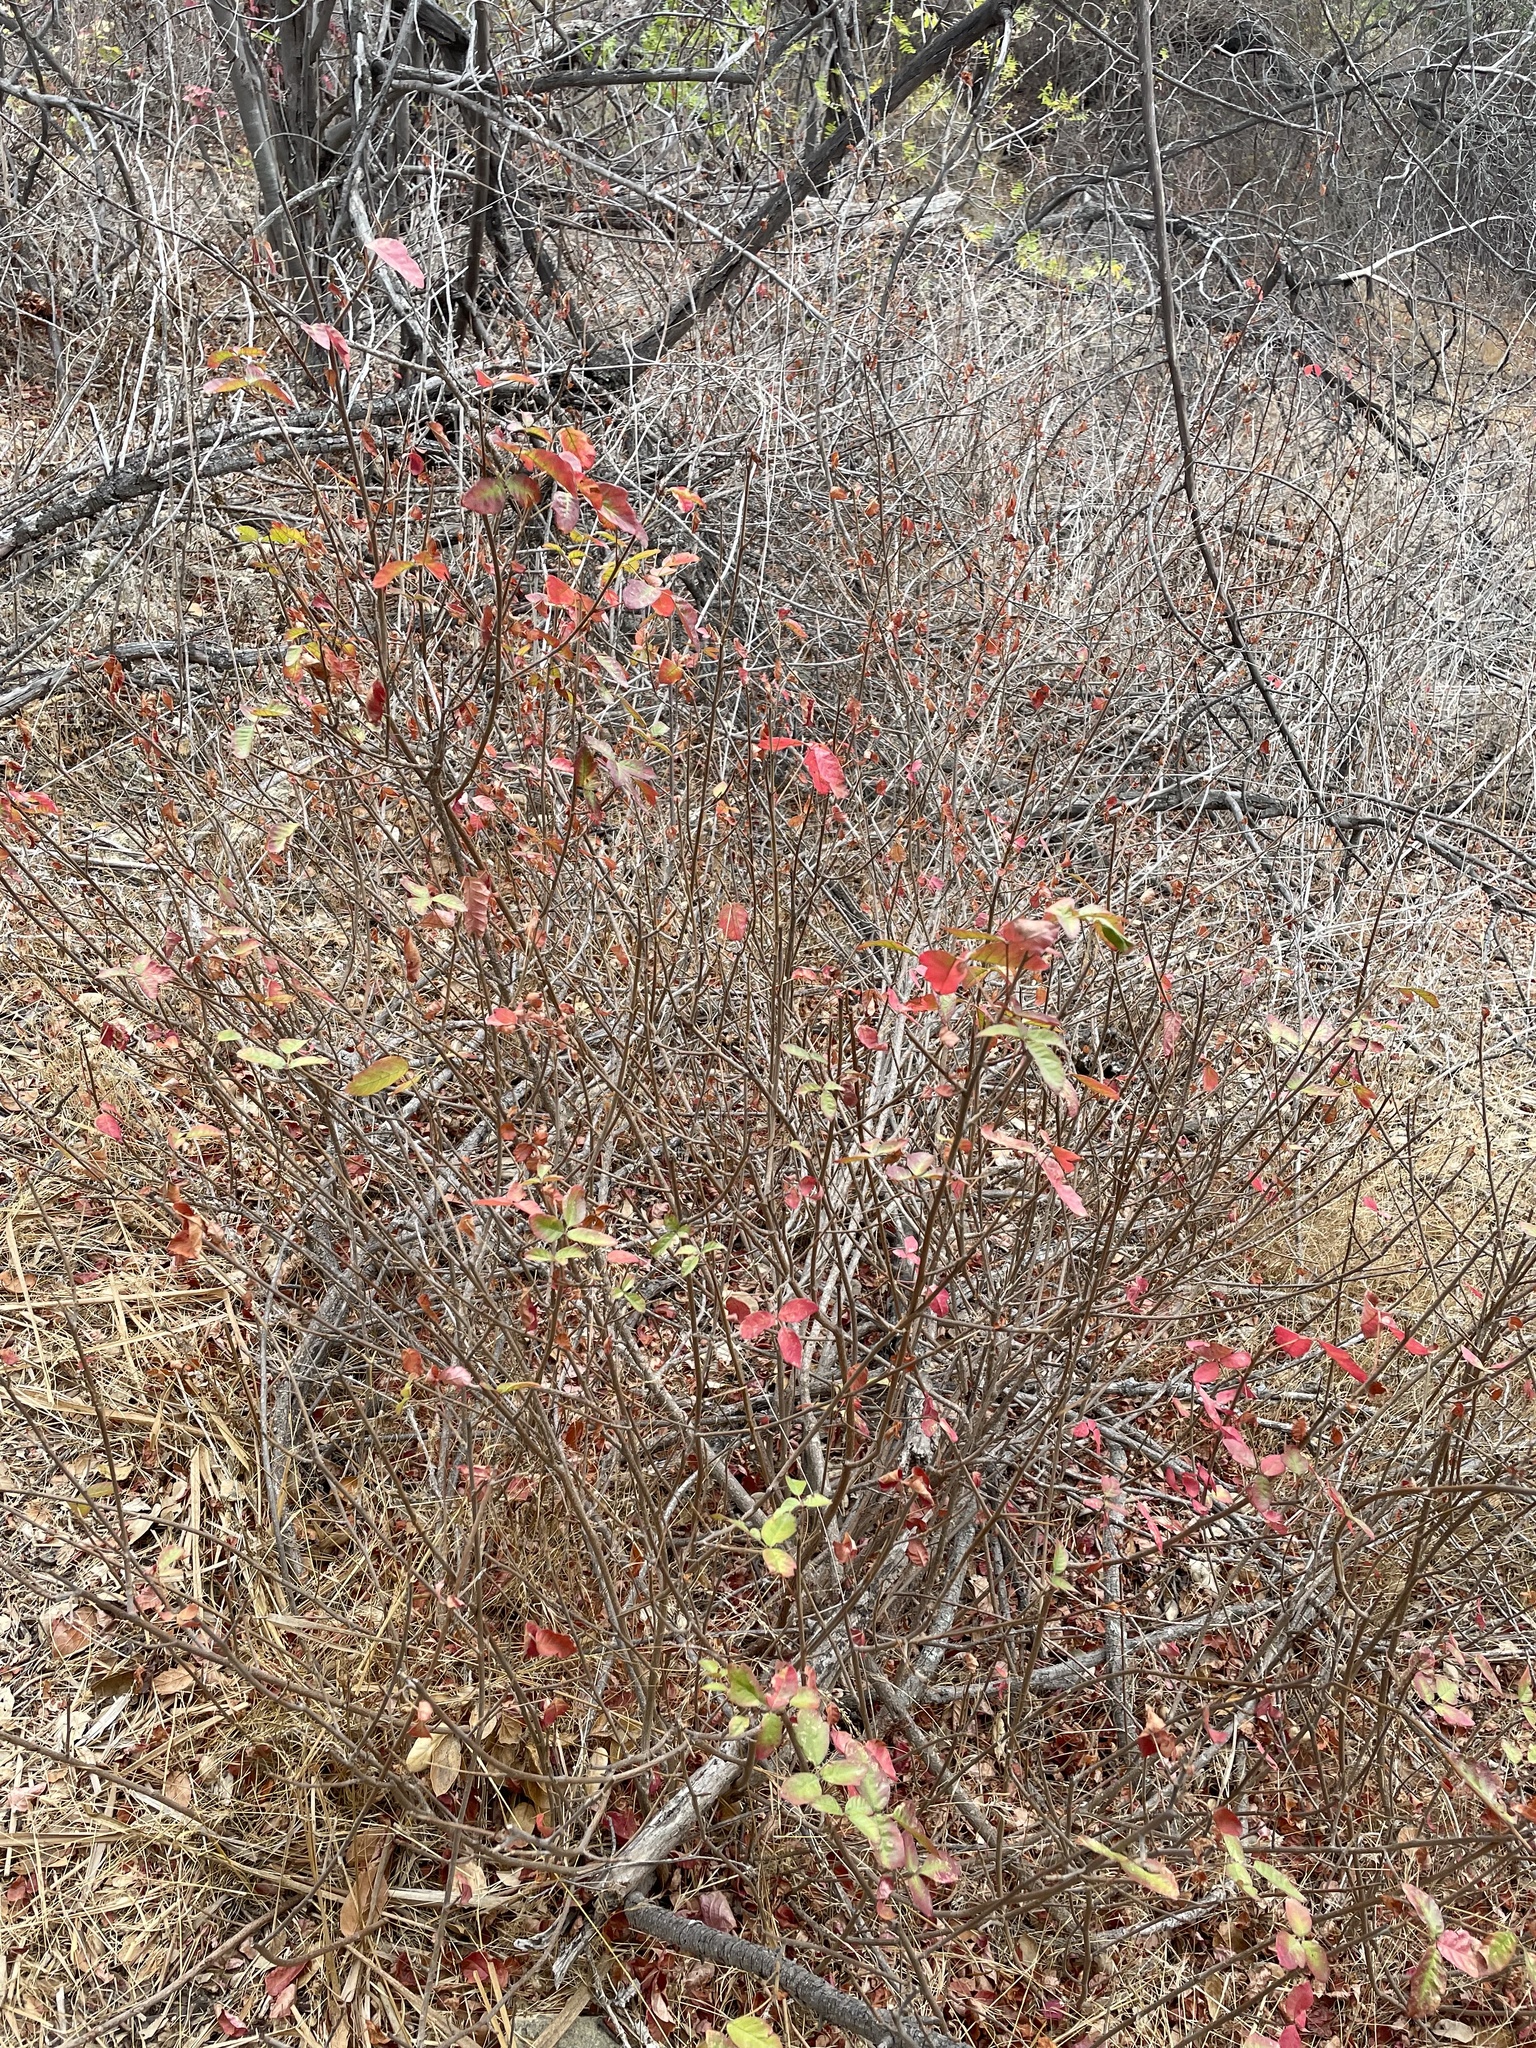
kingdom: Plantae
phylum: Tracheophyta
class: Magnoliopsida
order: Sapindales
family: Anacardiaceae
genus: Toxicodendron
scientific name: Toxicodendron diversilobum
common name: Pacific poison-oak
